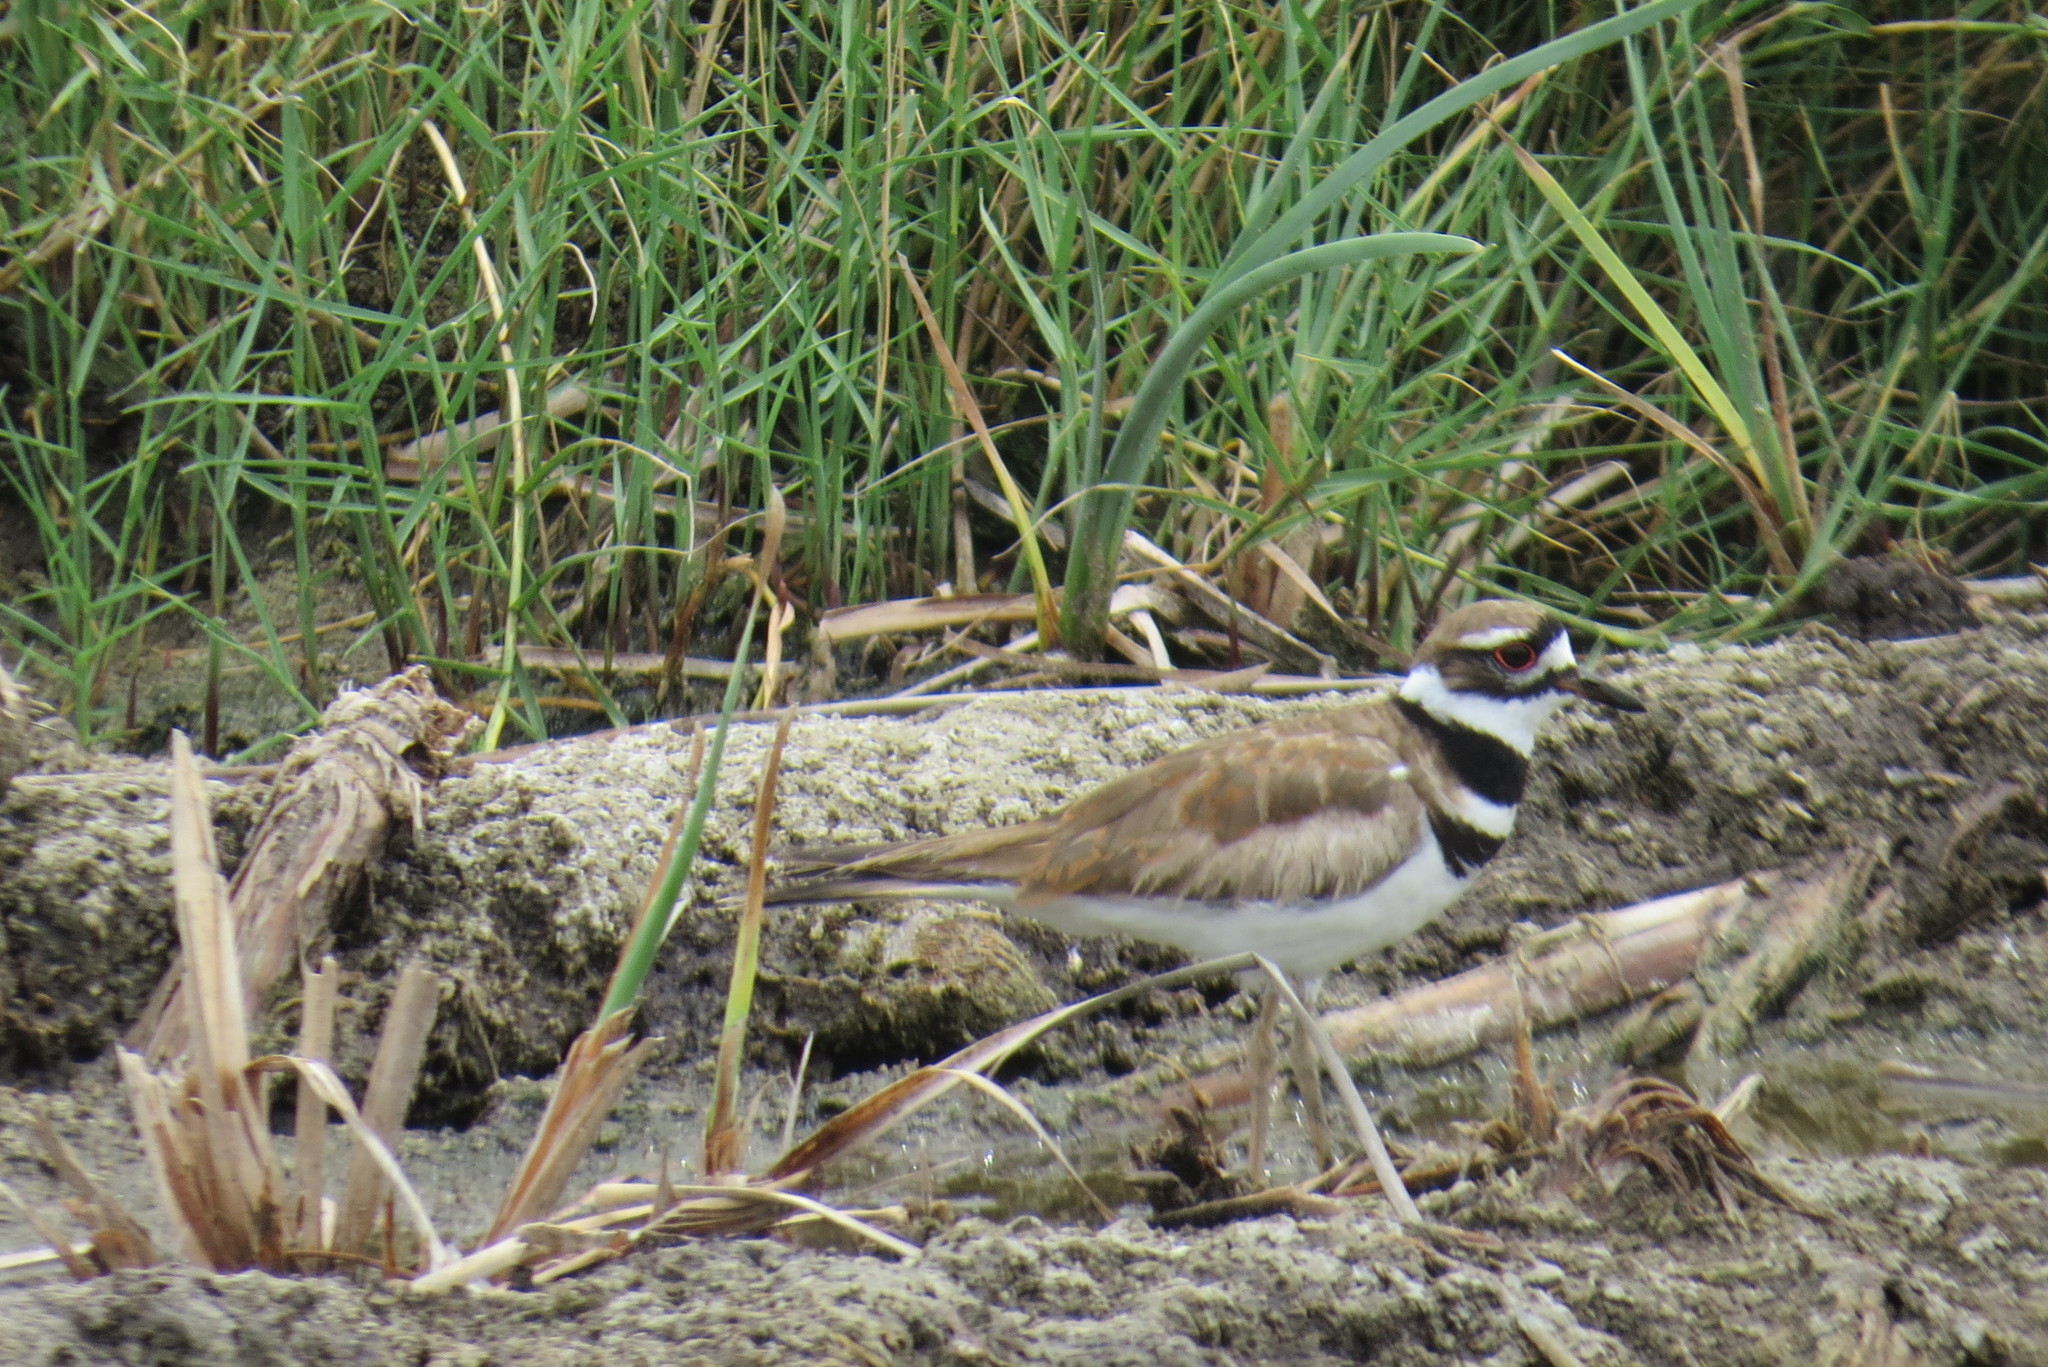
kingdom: Animalia
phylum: Chordata
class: Aves
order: Charadriiformes
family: Charadriidae
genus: Charadrius
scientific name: Charadrius vociferus
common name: Killdeer
